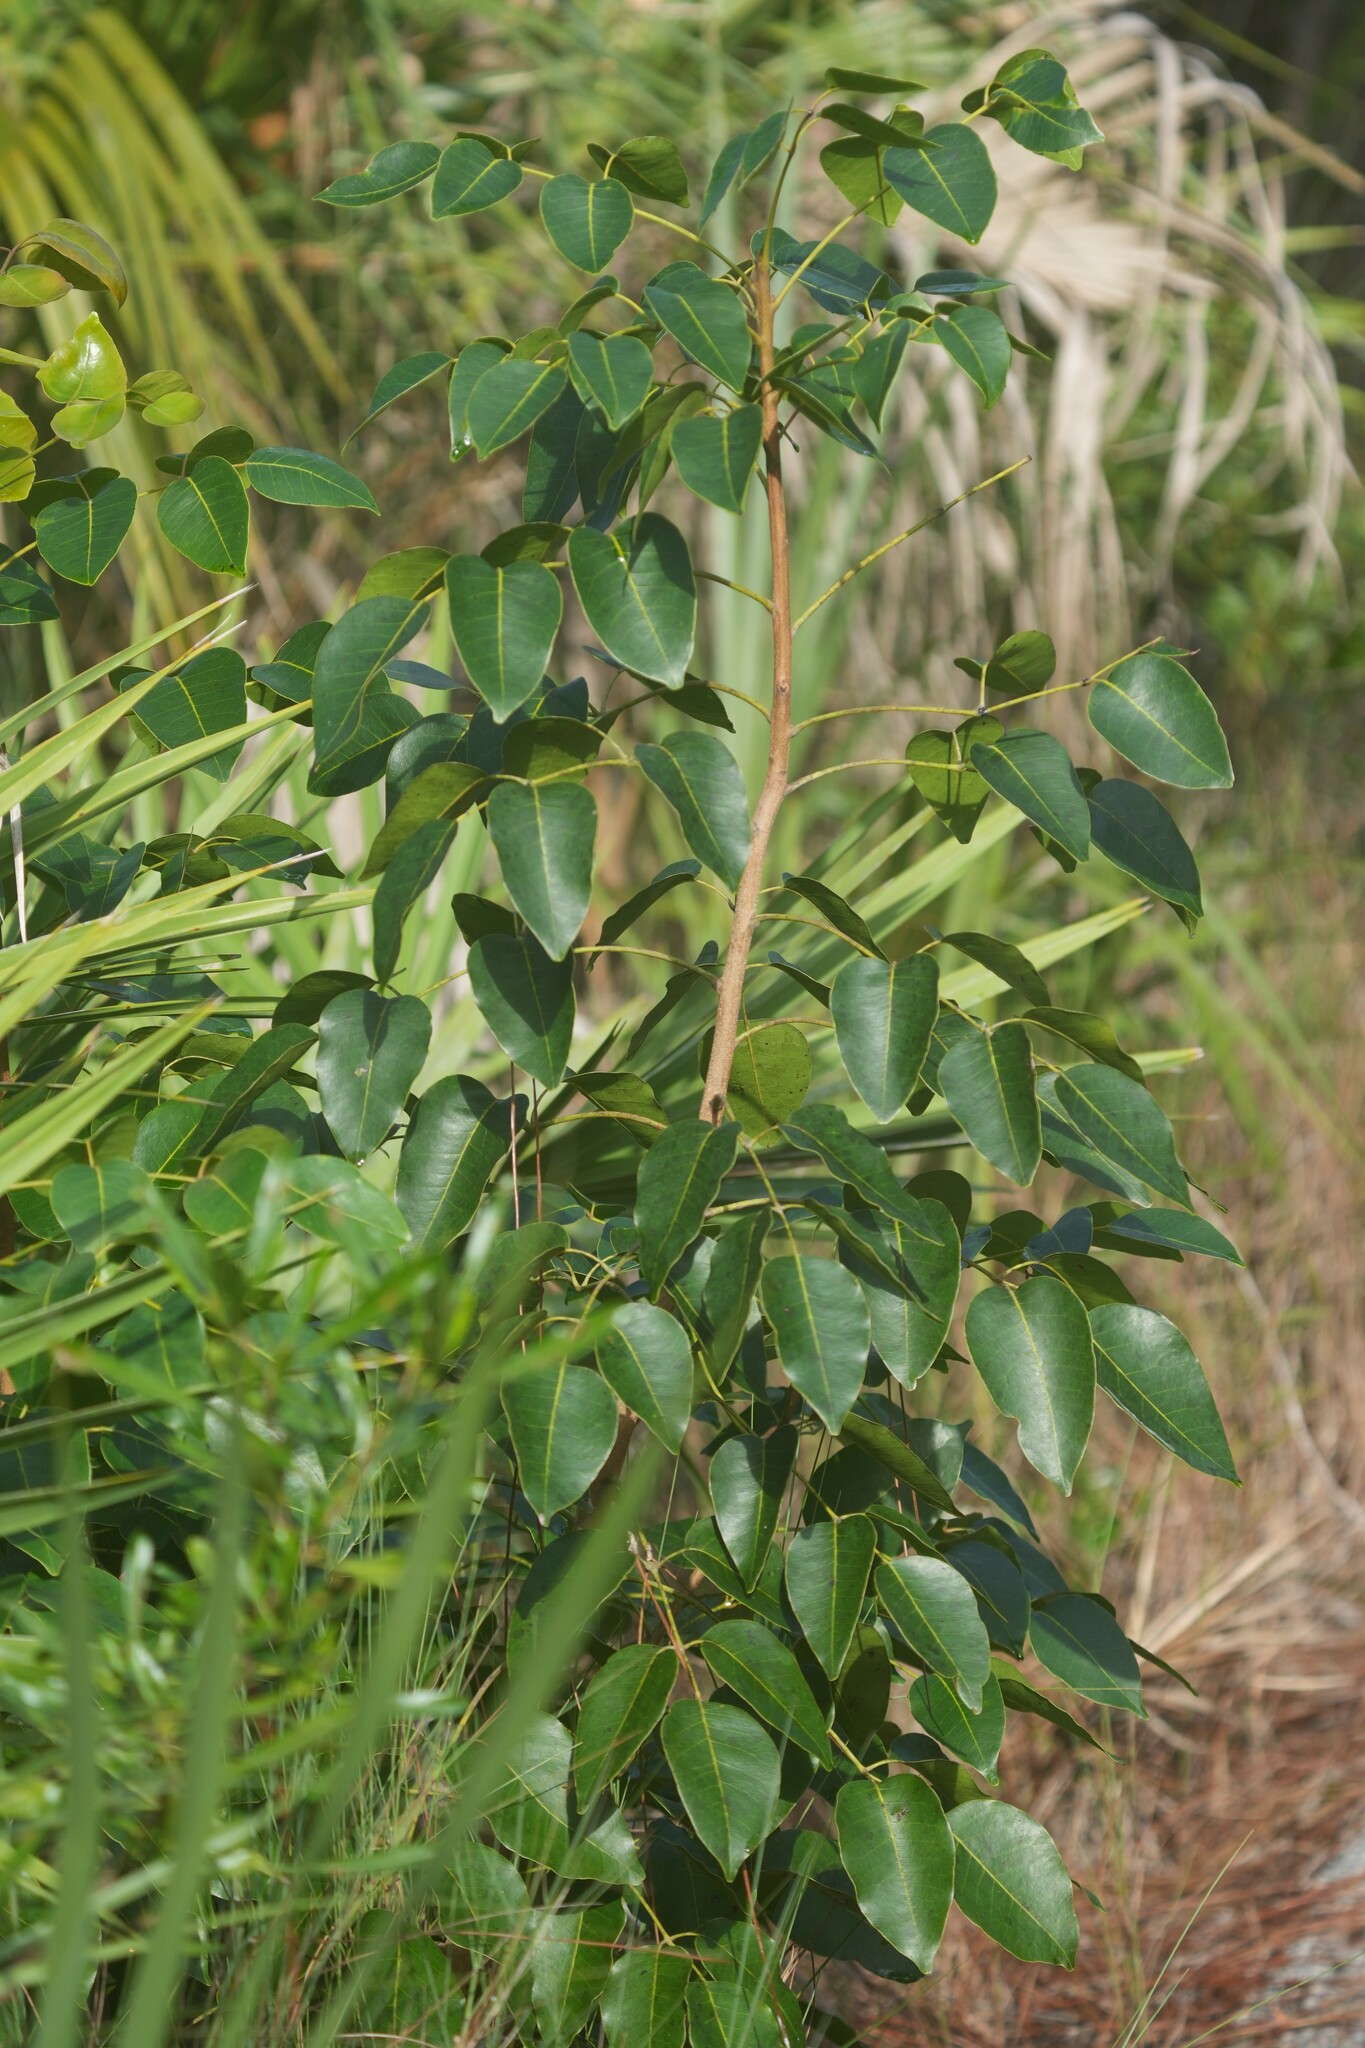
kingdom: Plantae
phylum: Tracheophyta
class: Magnoliopsida
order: Sapindales
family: Anacardiaceae
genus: Metopium
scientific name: Metopium toxiferum
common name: Florida poisontree
